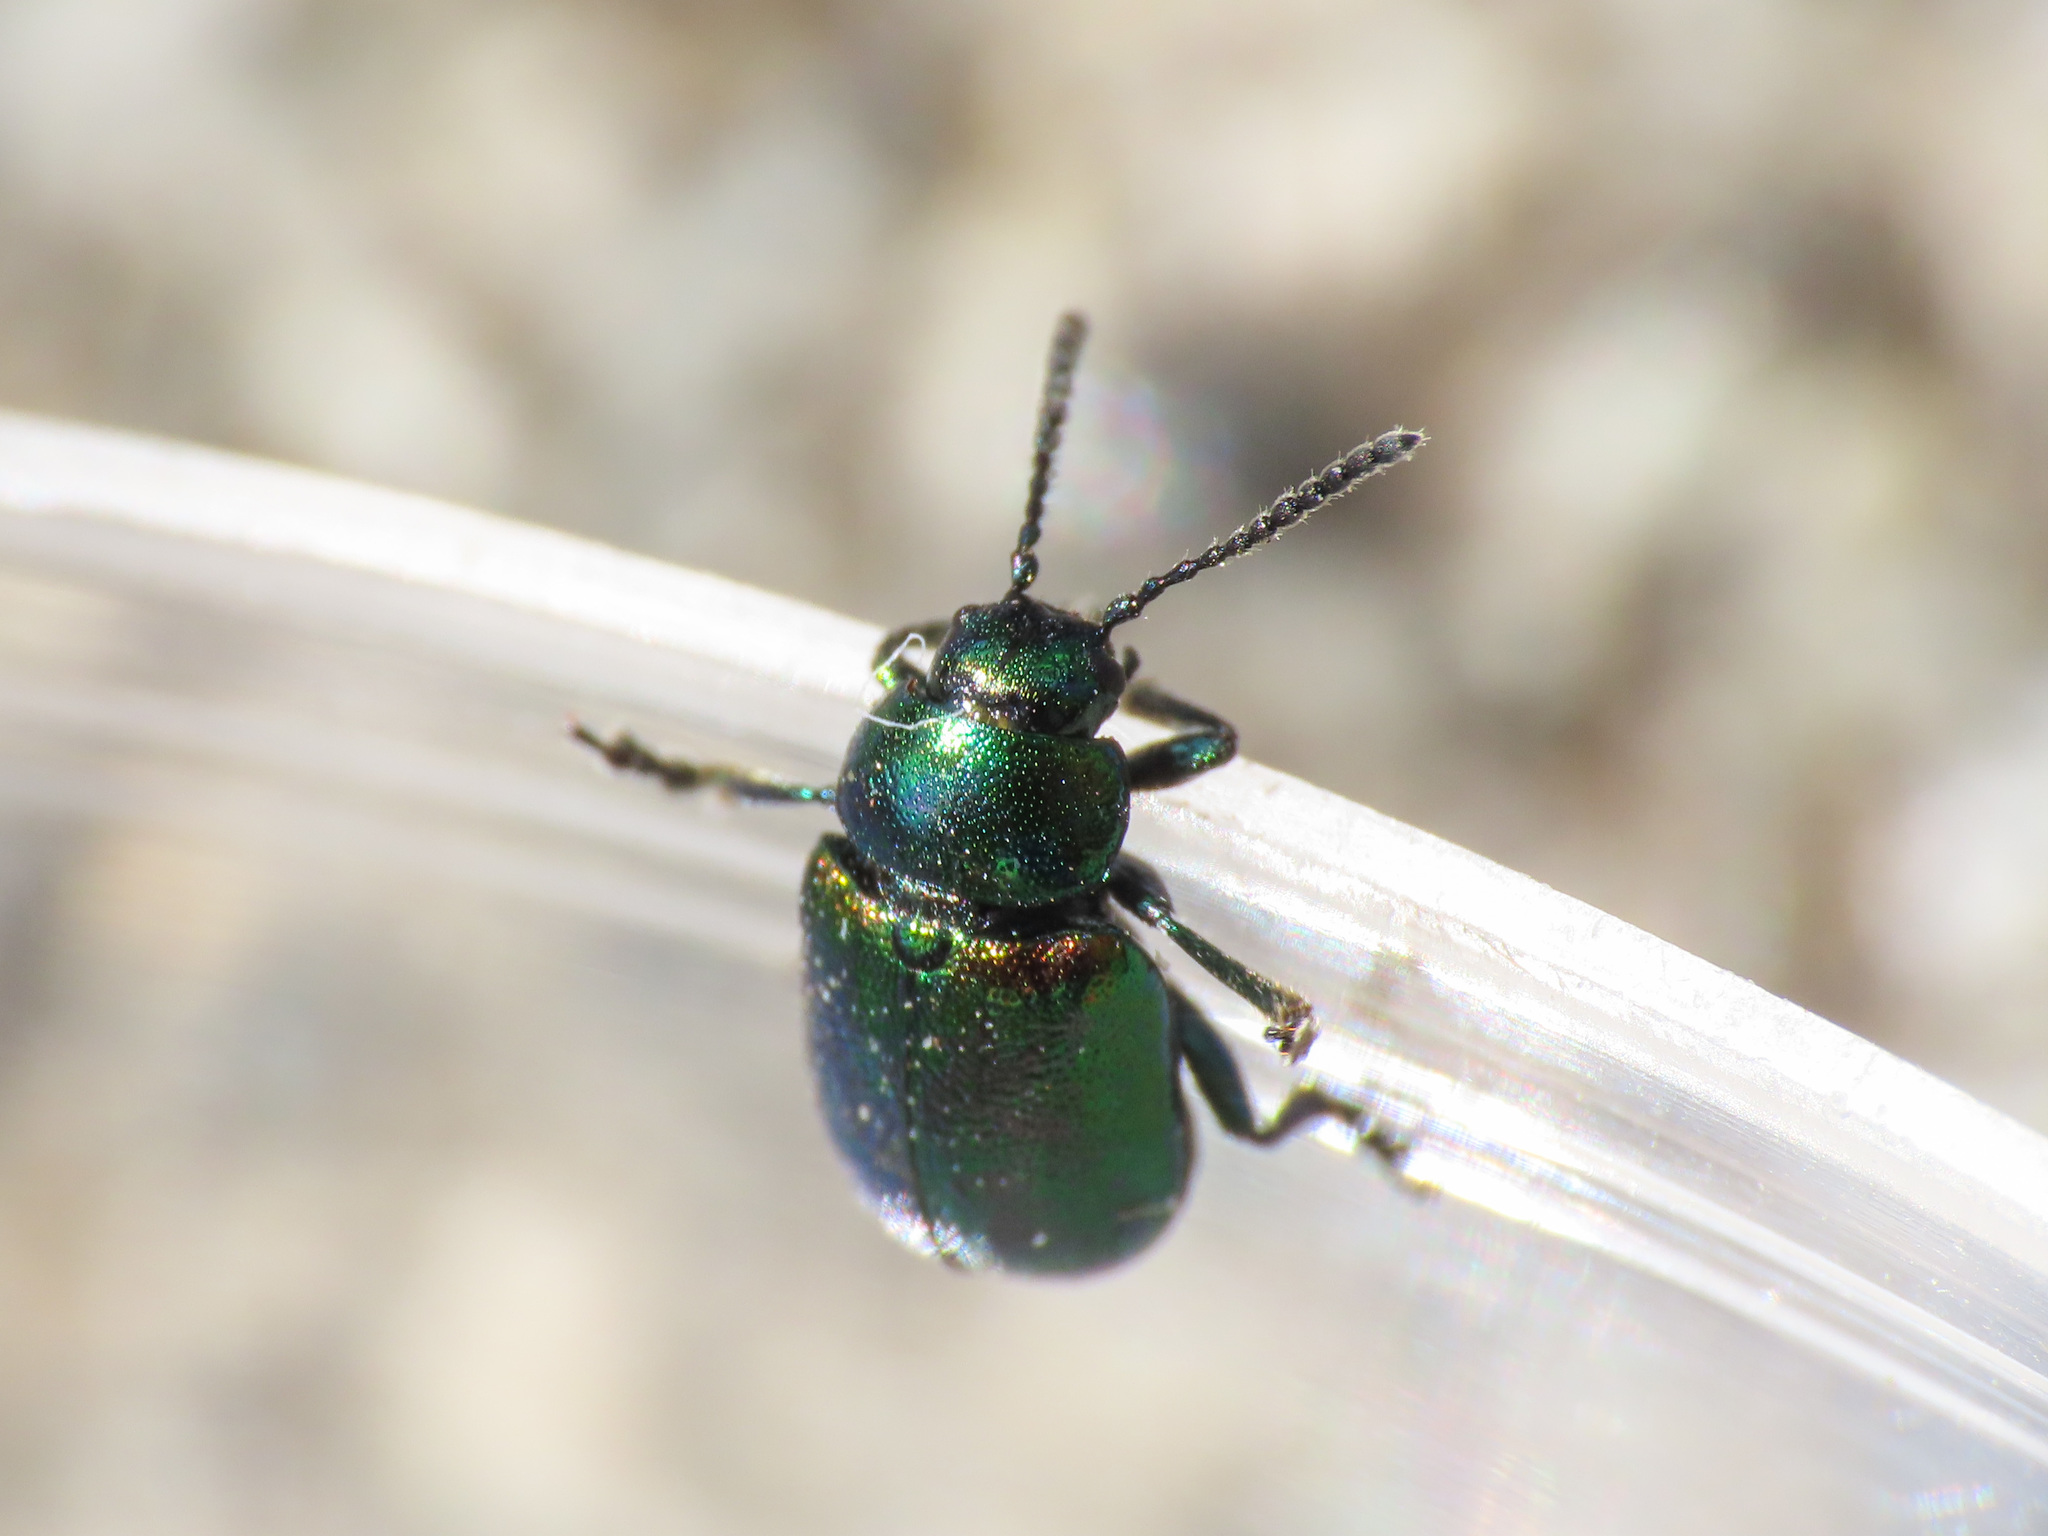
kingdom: Animalia
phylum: Arthropoda
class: Insecta
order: Coleoptera
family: Chrysomelidae
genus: Gastrophysa
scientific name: Gastrophysa viridula
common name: Green dock beetle
